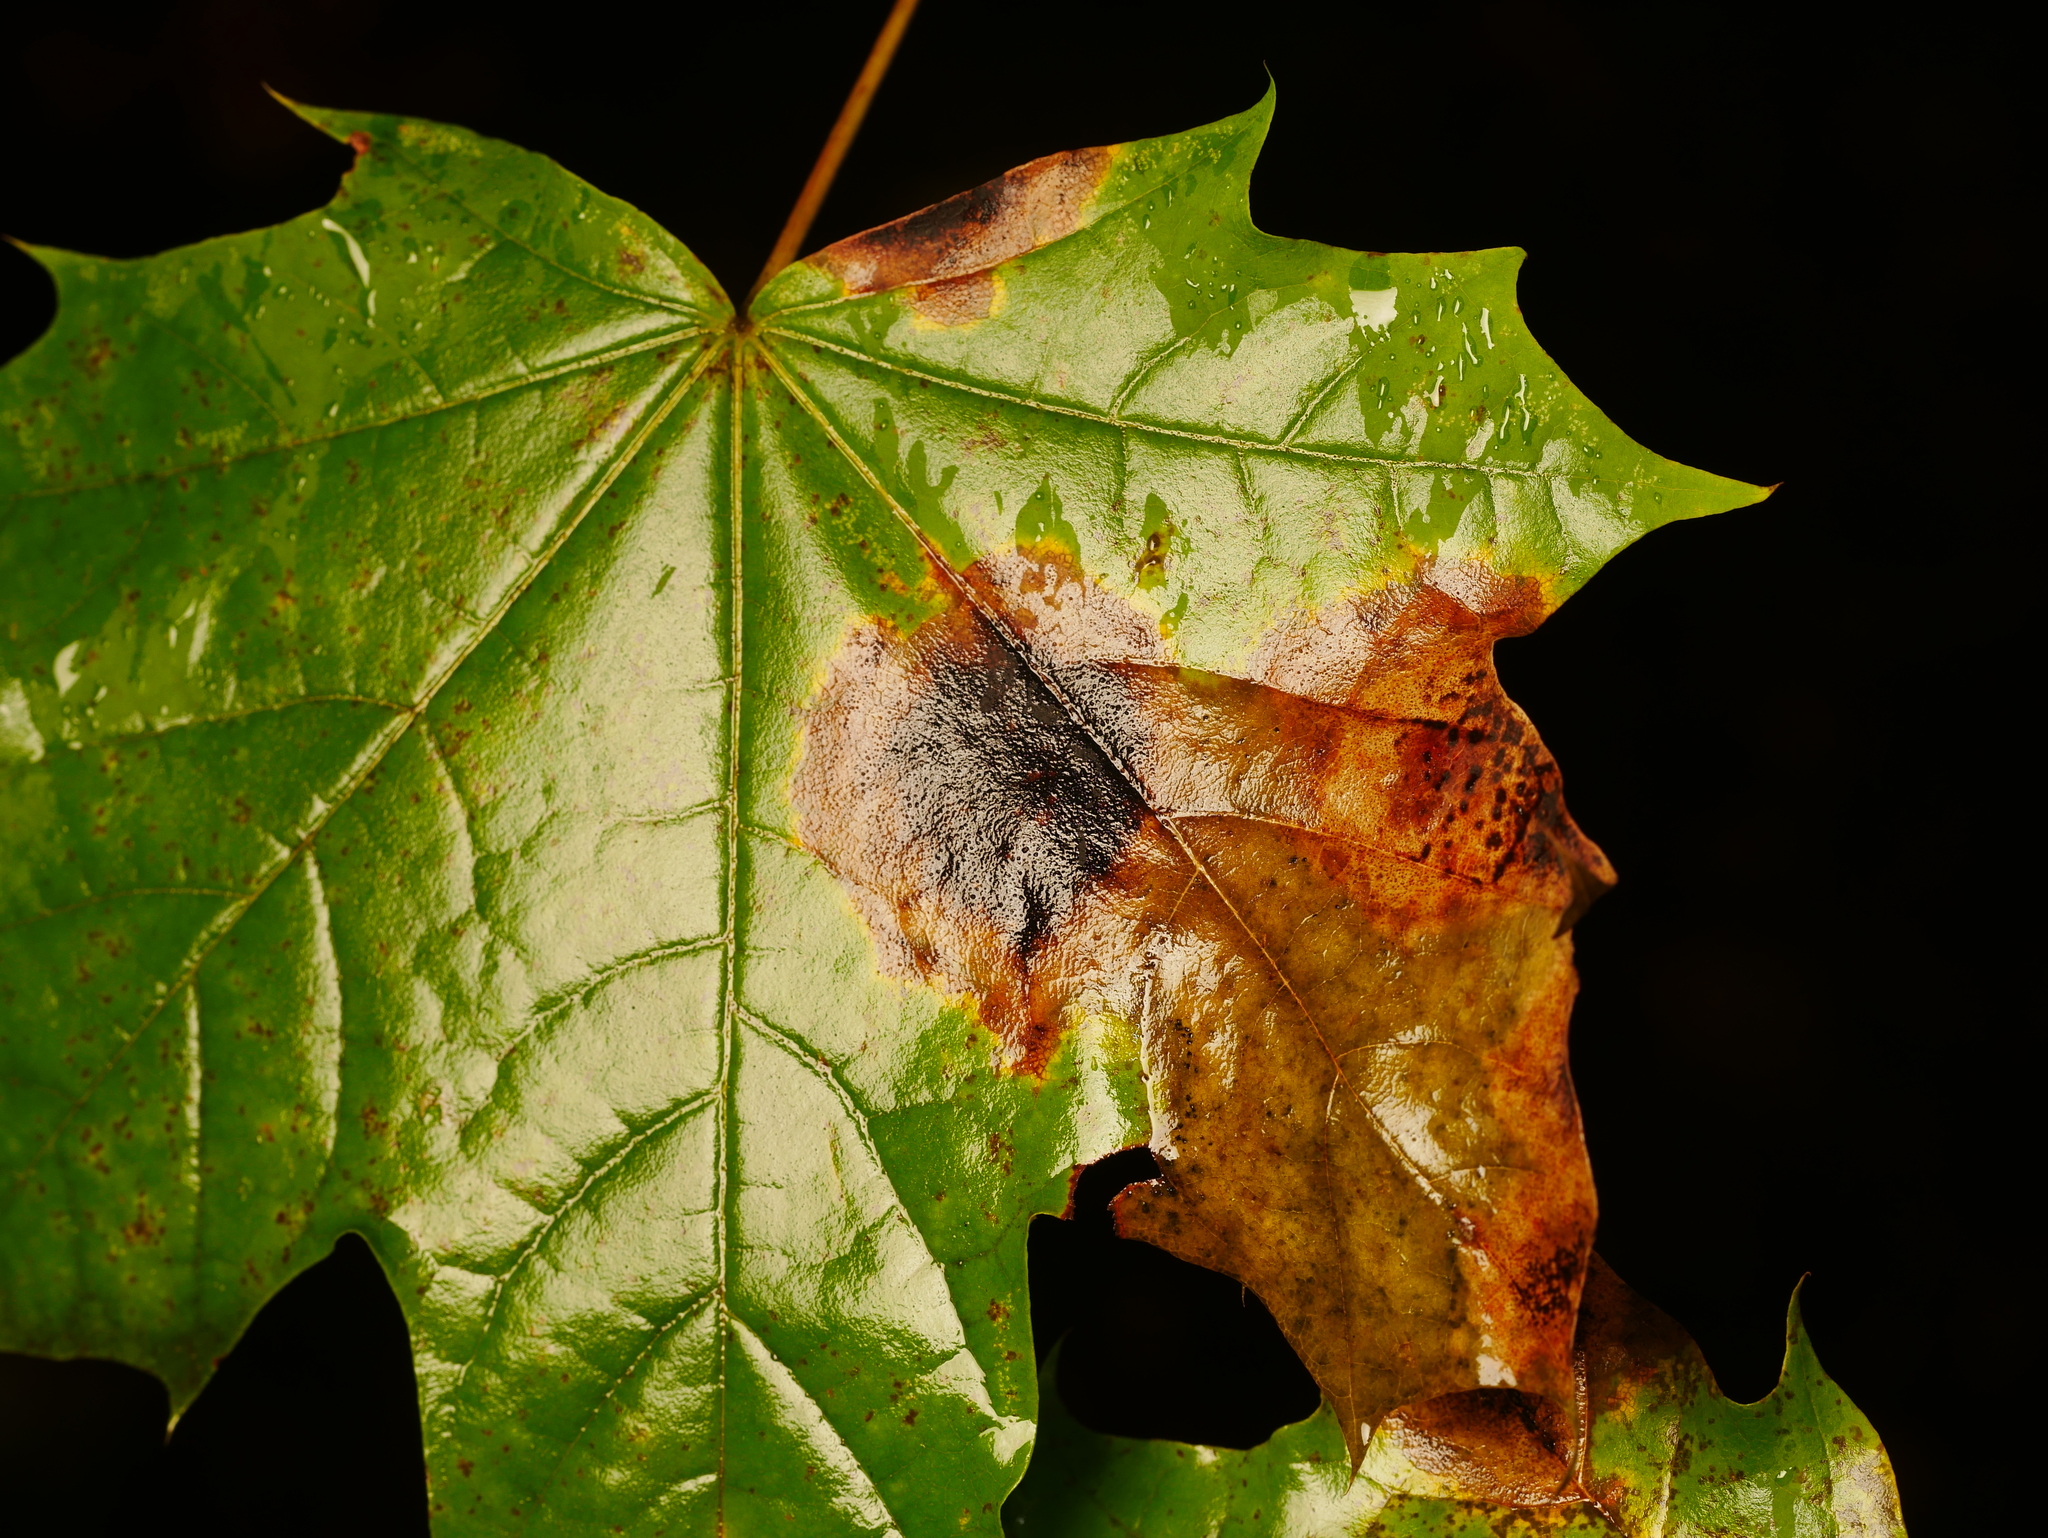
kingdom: Fungi
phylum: Ascomycota
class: Leotiomycetes
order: Rhytismatales
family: Rhytismataceae
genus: Rhytisma
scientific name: Rhytisma acerinum
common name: European tar spot
